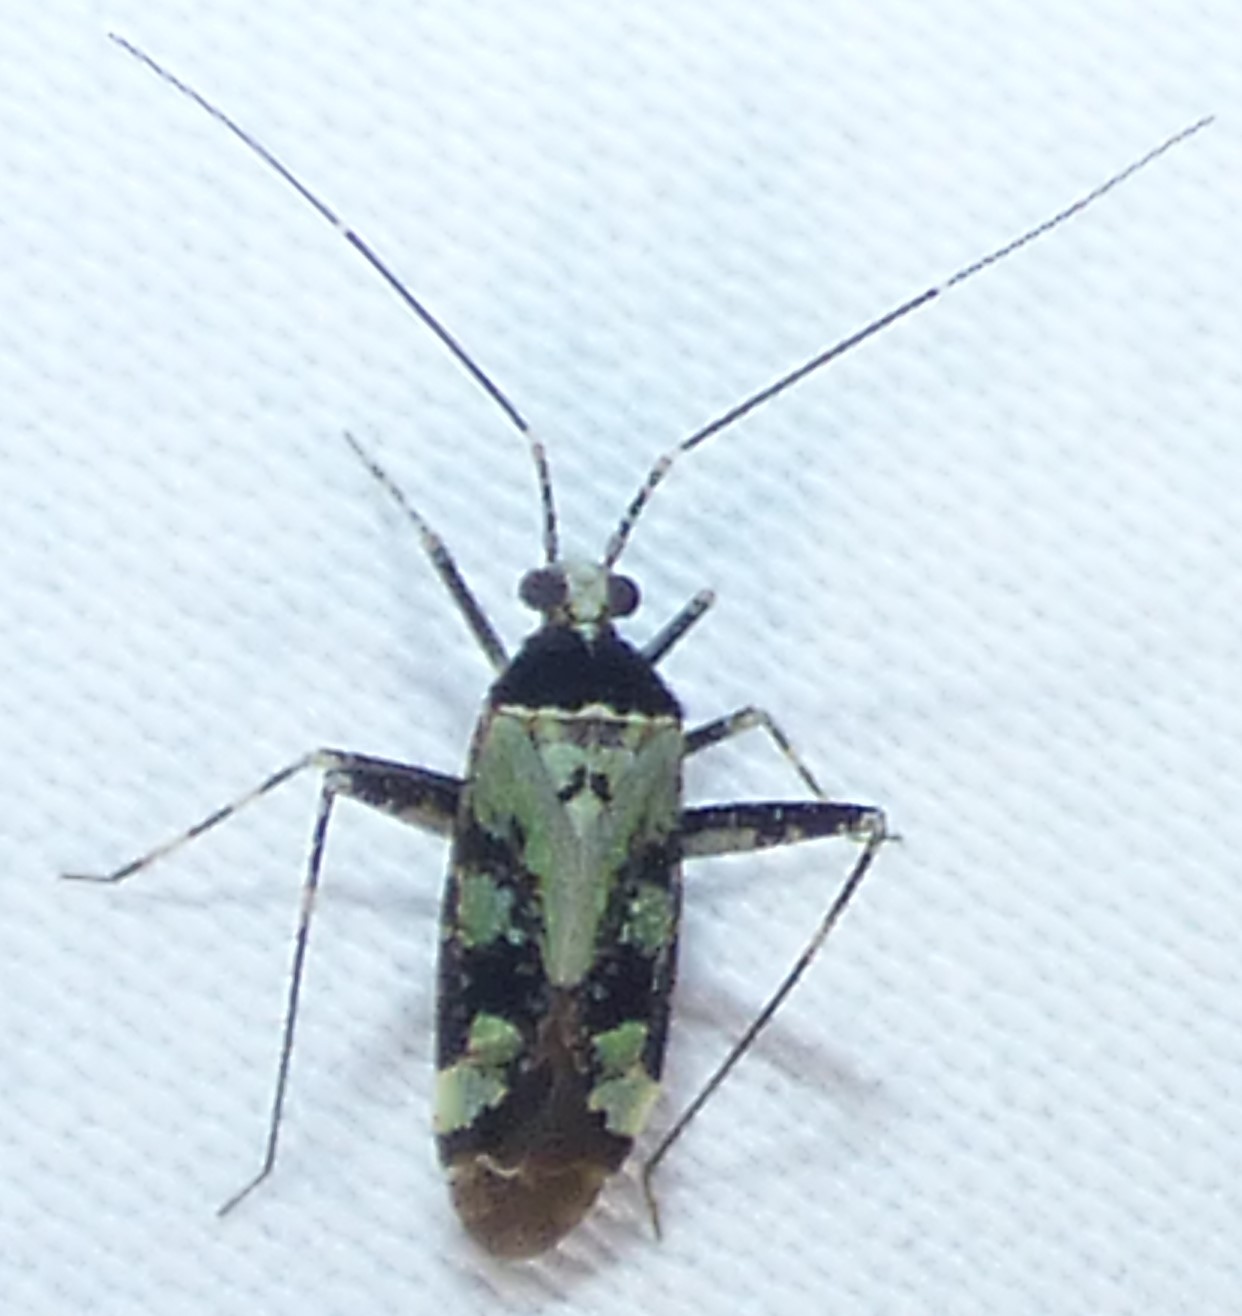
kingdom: Animalia
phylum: Arthropoda
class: Insecta
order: Hemiptera
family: Miridae
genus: Phytocoris
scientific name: Phytocoris nigricollis
